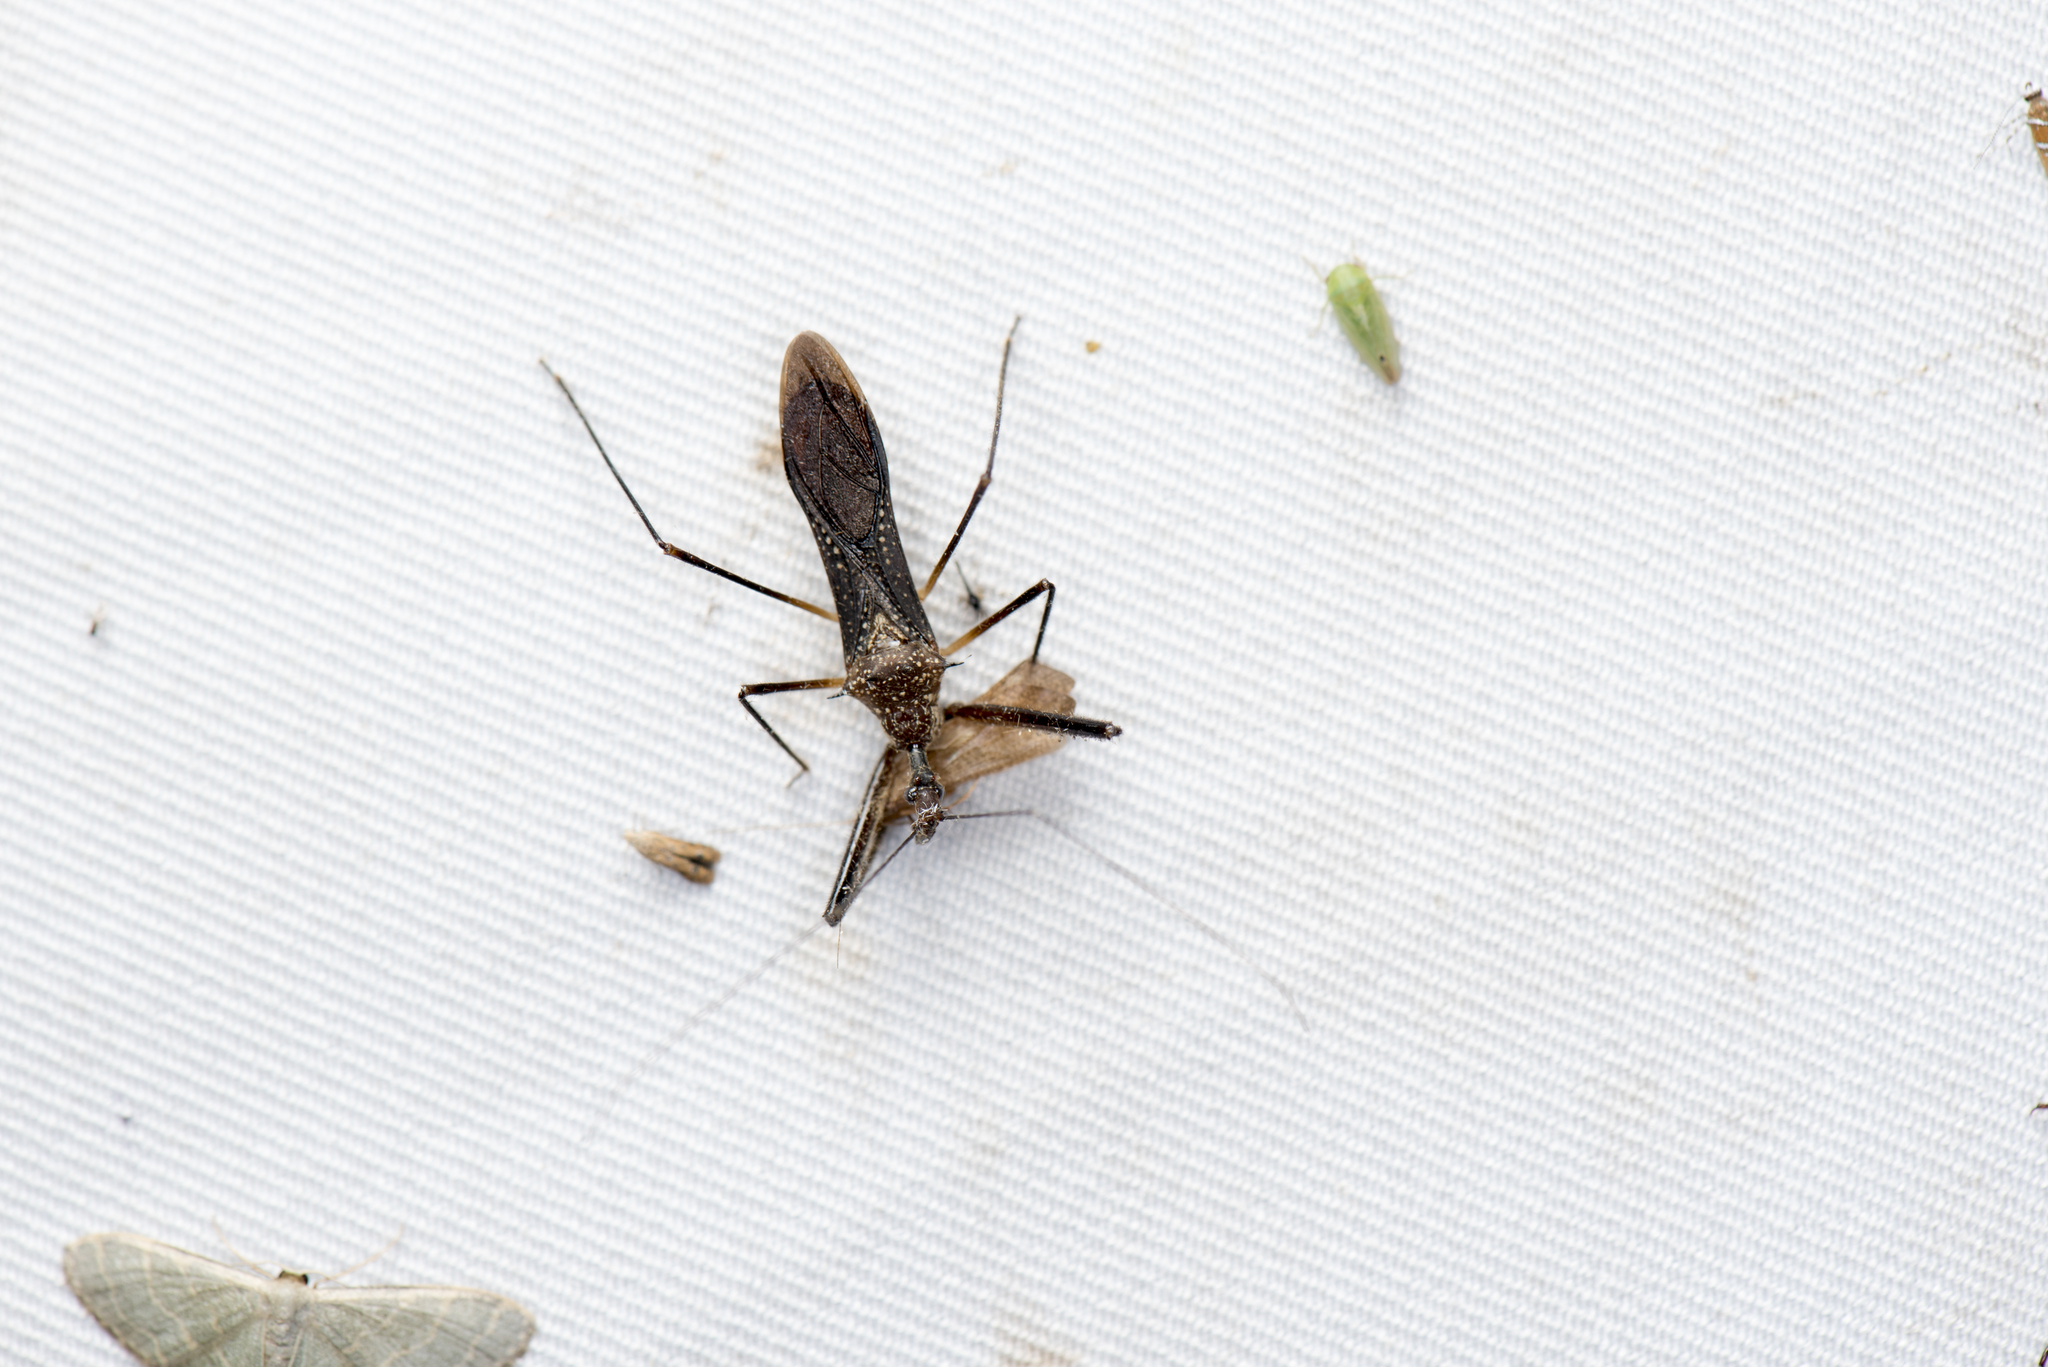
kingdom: Animalia
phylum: Arthropoda
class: Insecta
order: Hemiptera
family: Reduviidae
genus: Epidaus
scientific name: Epidaus sexspinus
